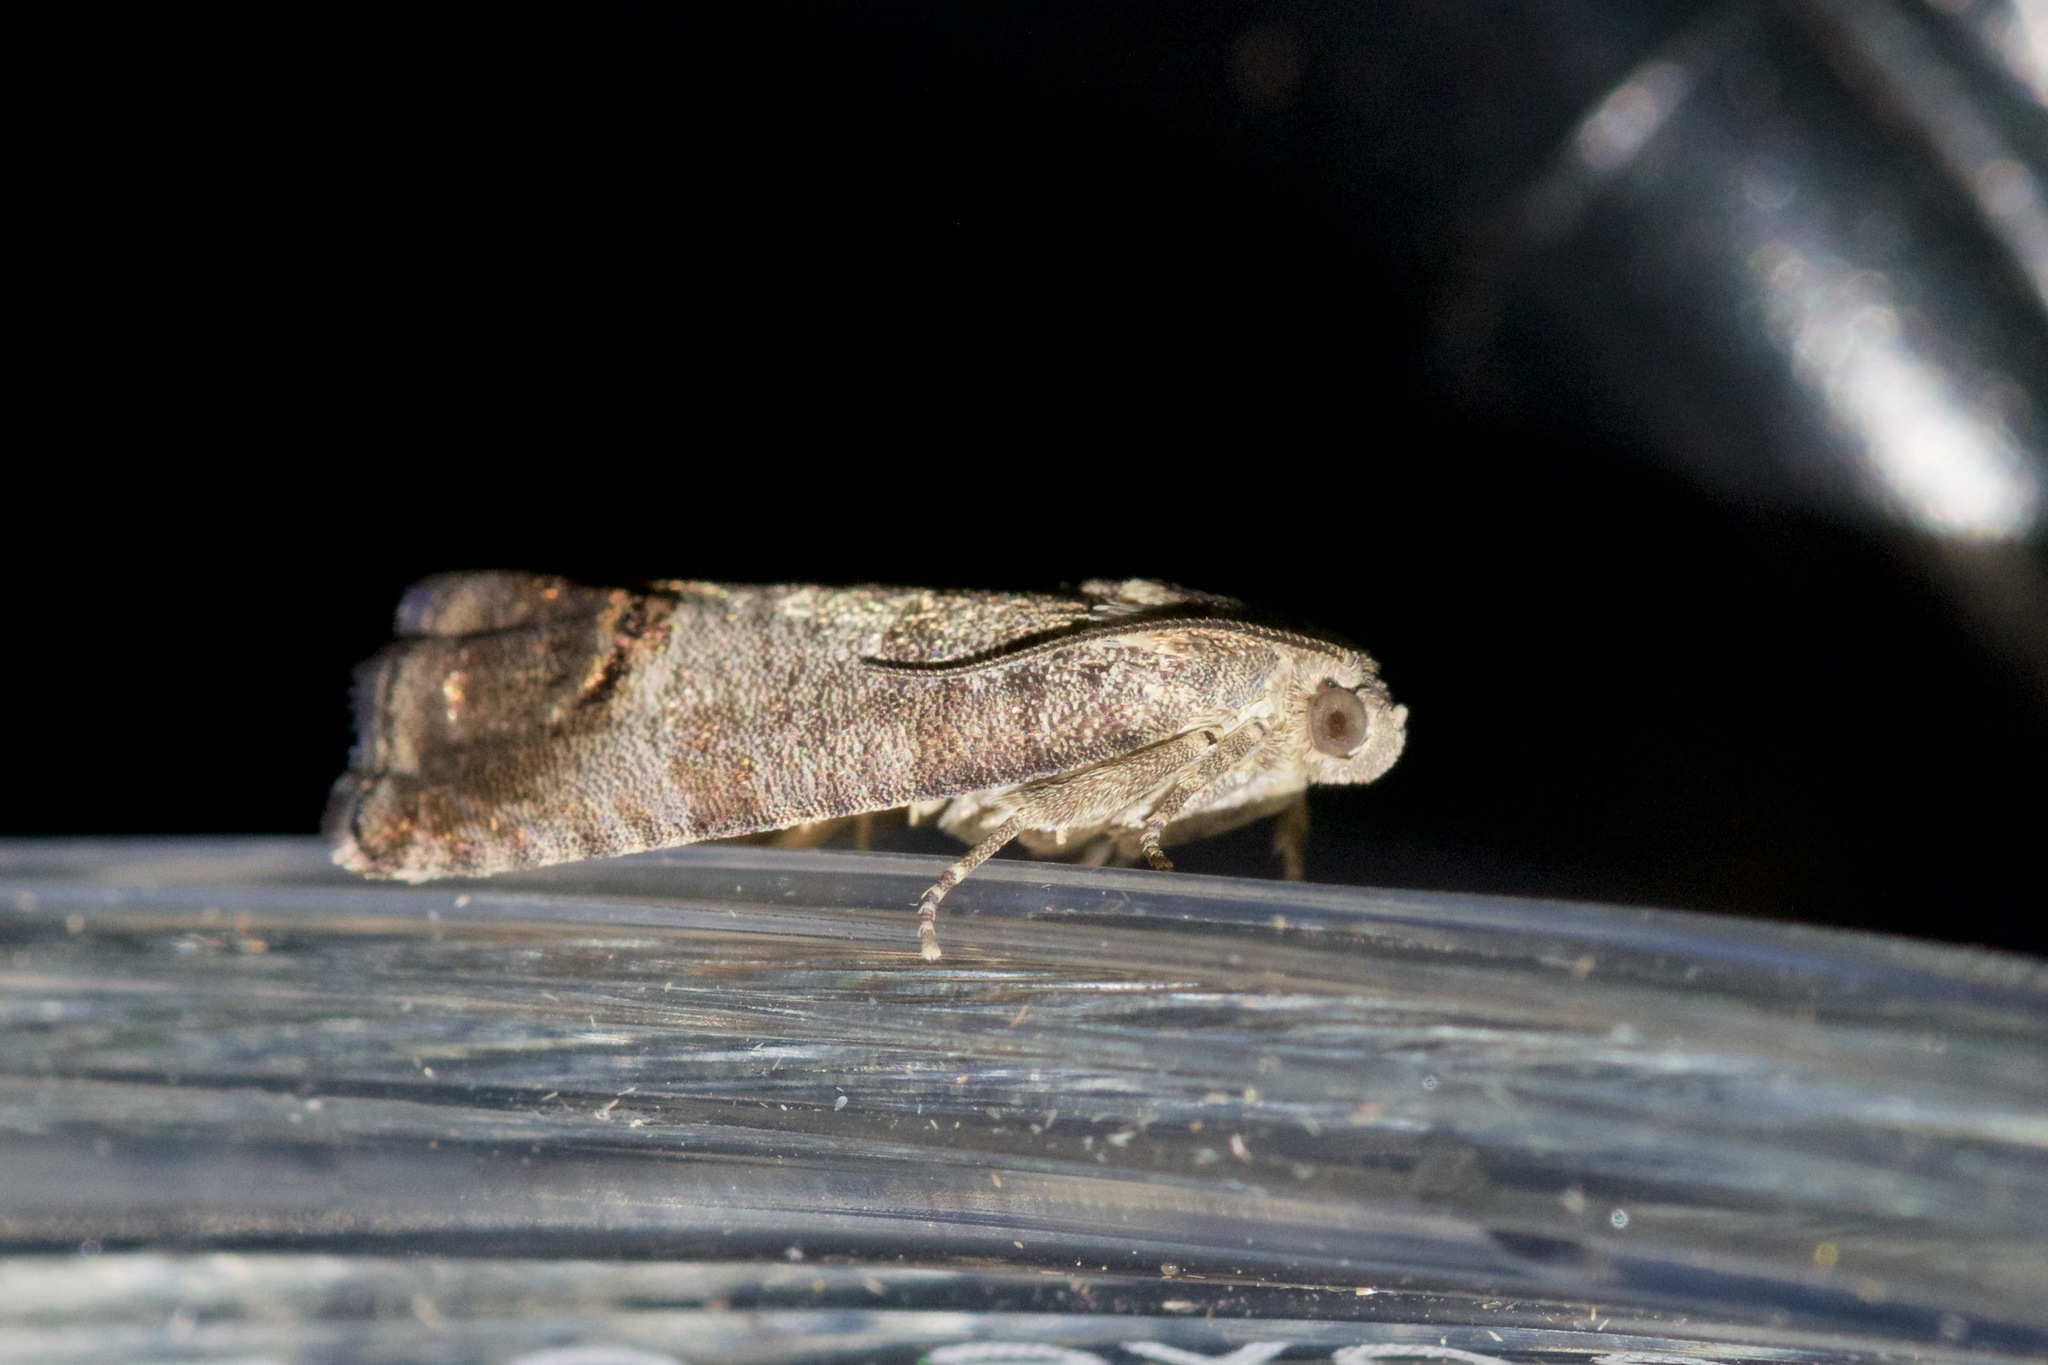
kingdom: Animalia
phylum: Arthropoda
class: Insecta
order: Lepidoptera
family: Tortricidae
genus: Cydia
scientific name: Cydia pomonella
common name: Codling moth
